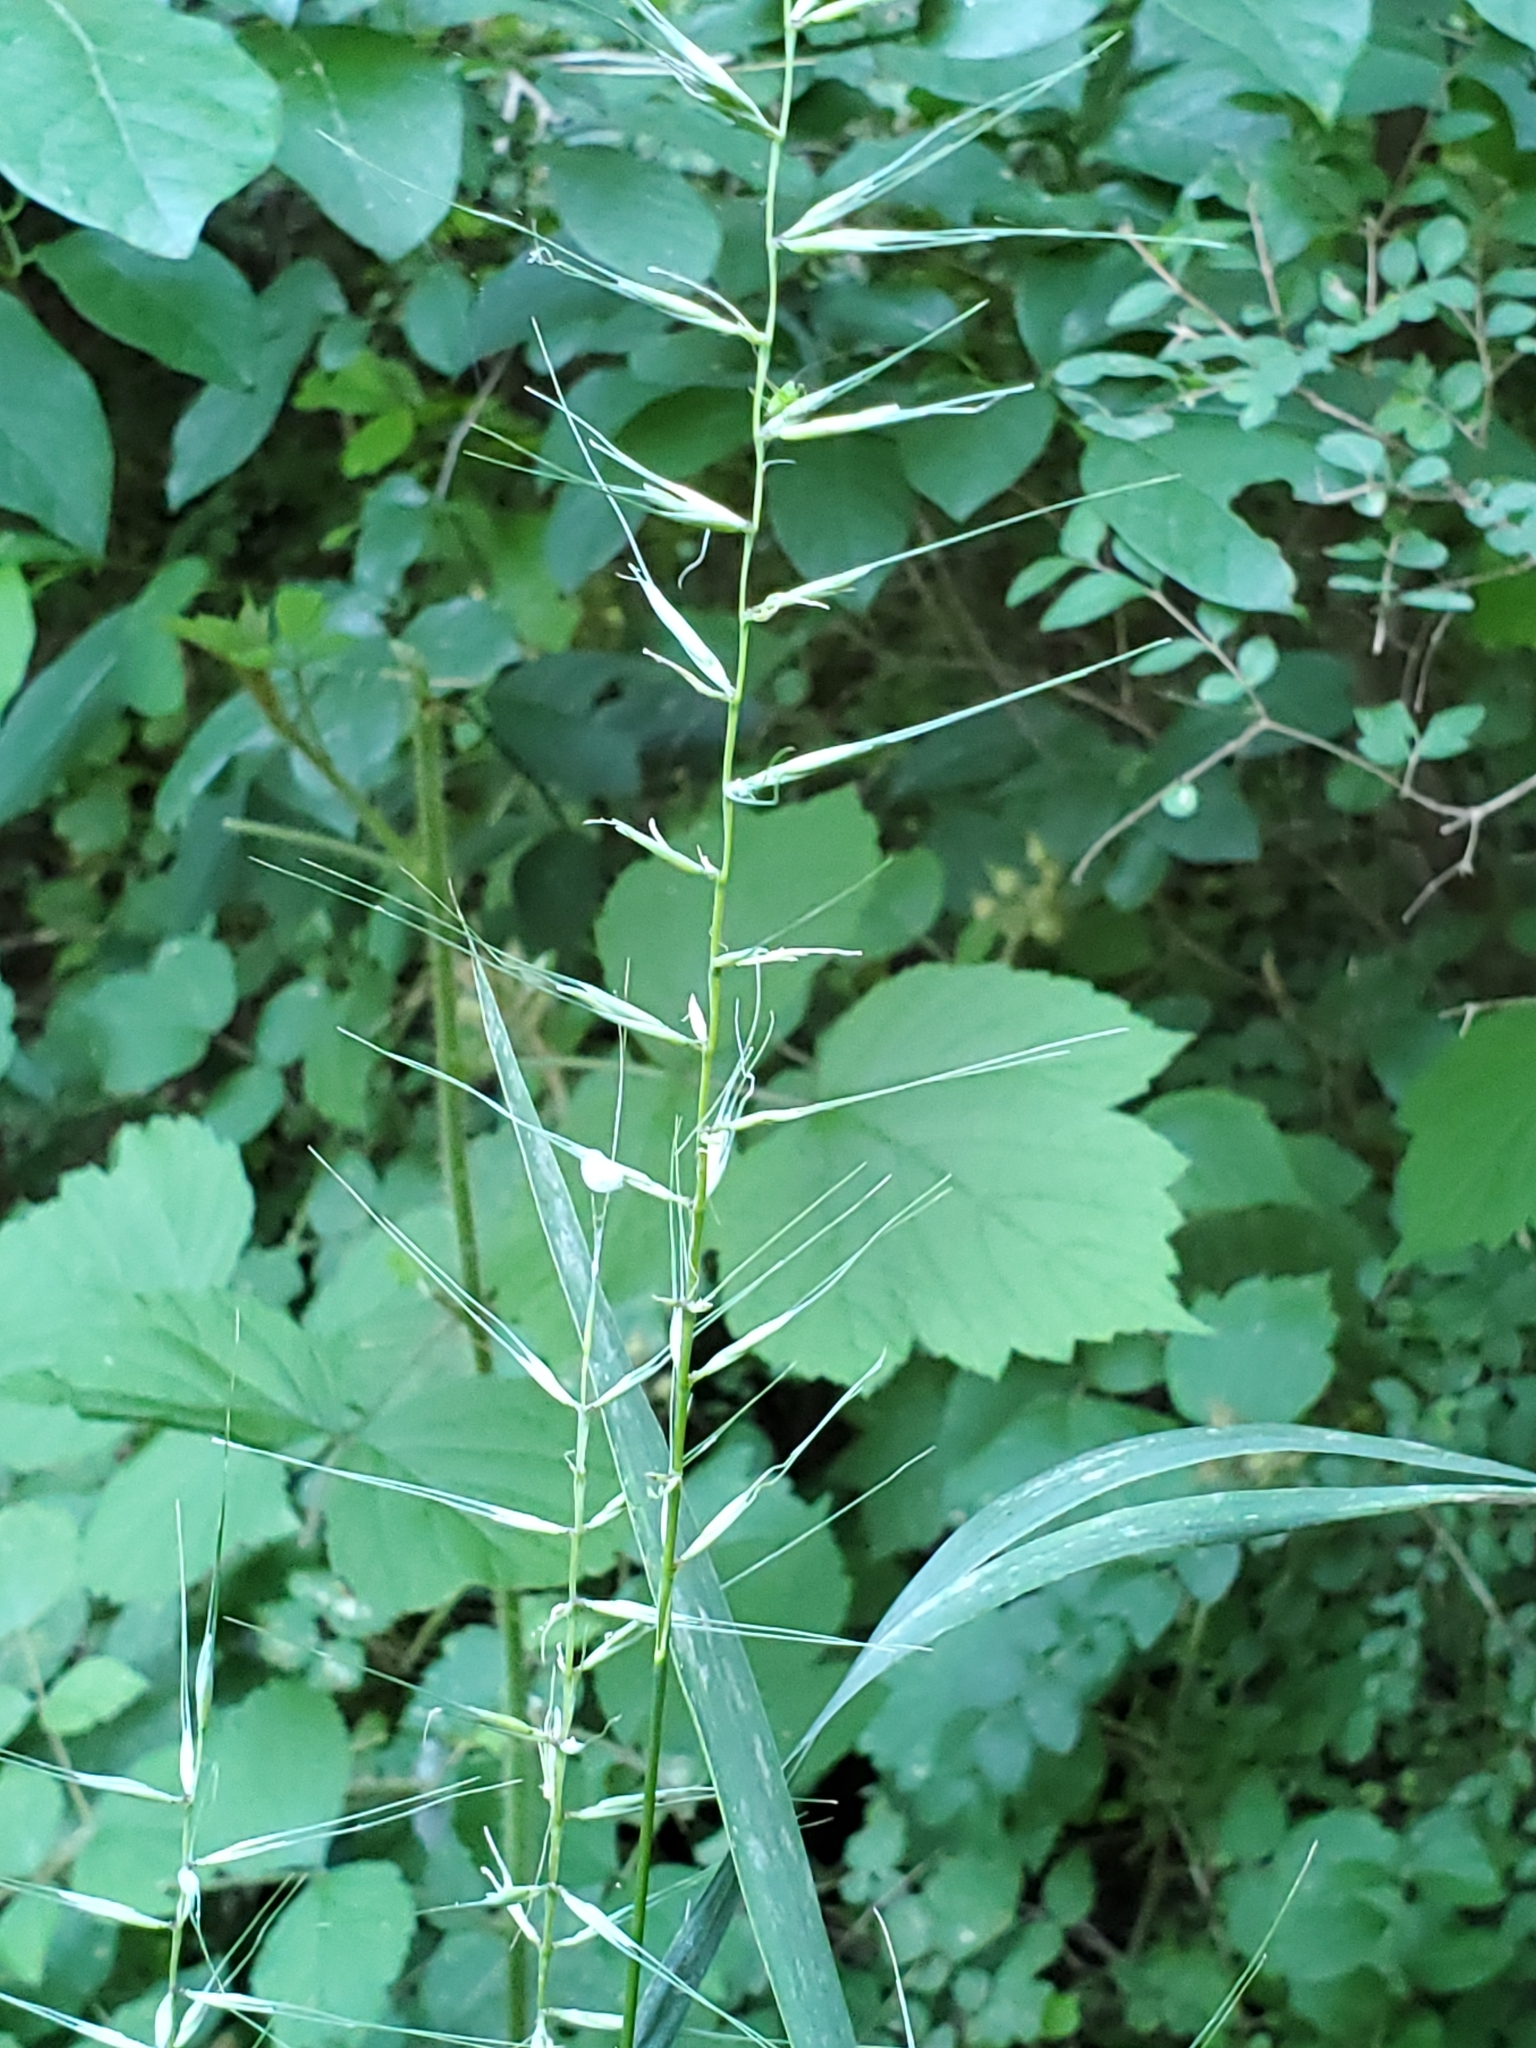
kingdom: Plantae
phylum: Tracheophyta
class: Liliopsida
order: Poales
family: Poaceae
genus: Elymus
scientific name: Elymus hystrix
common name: Bottlebrush grass
